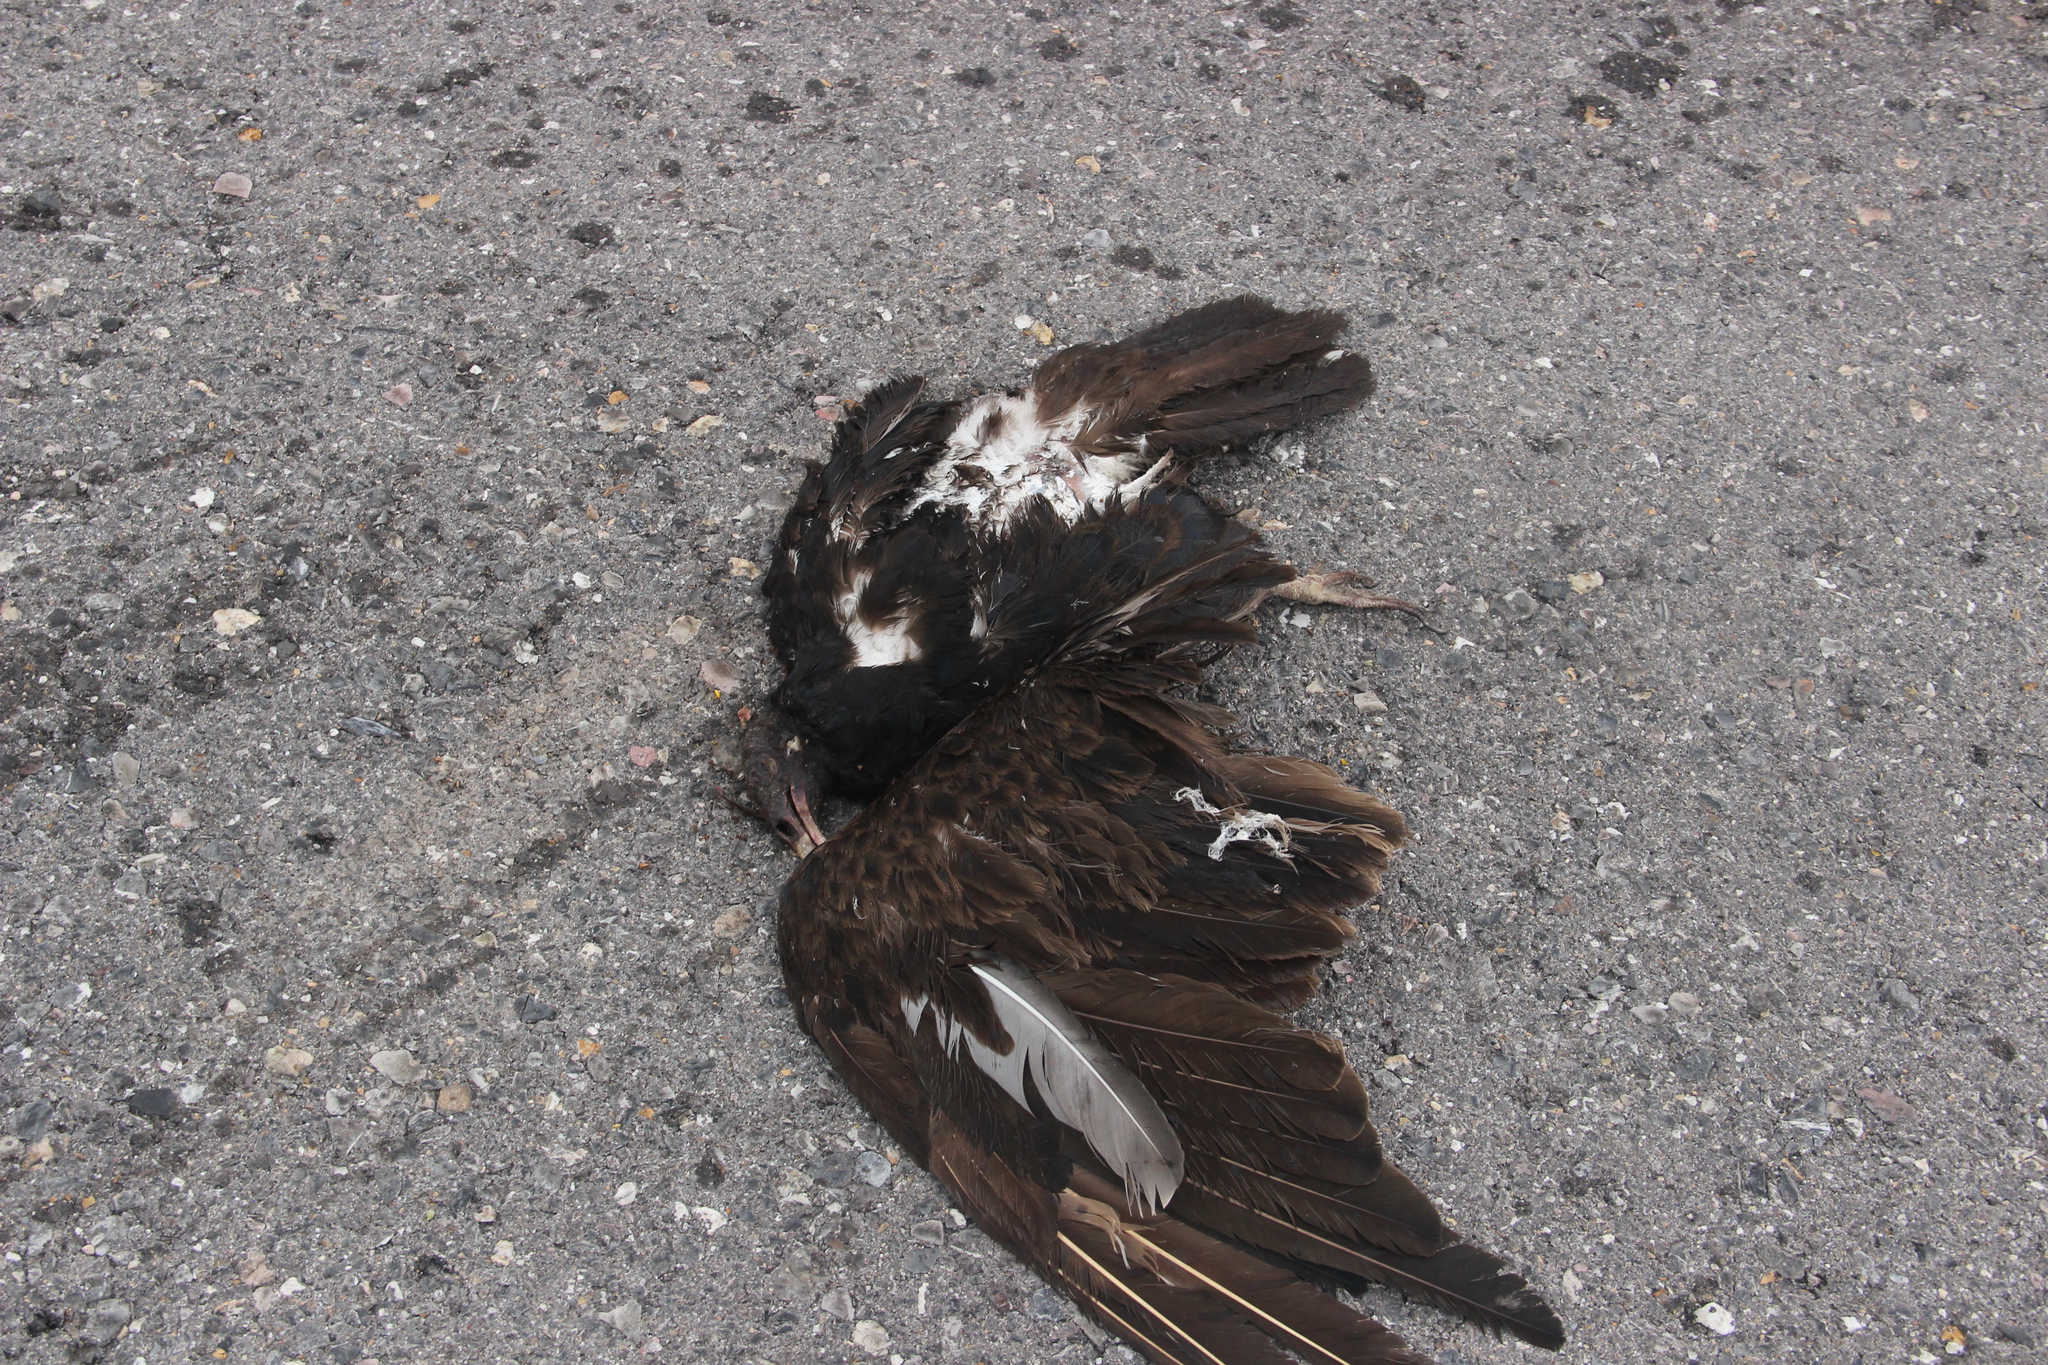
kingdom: Animalia
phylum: Chordata
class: Aves
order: Accipitriformes
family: Cathartidae
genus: Cathartes
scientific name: Cathartes aura
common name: Turkey vulture
